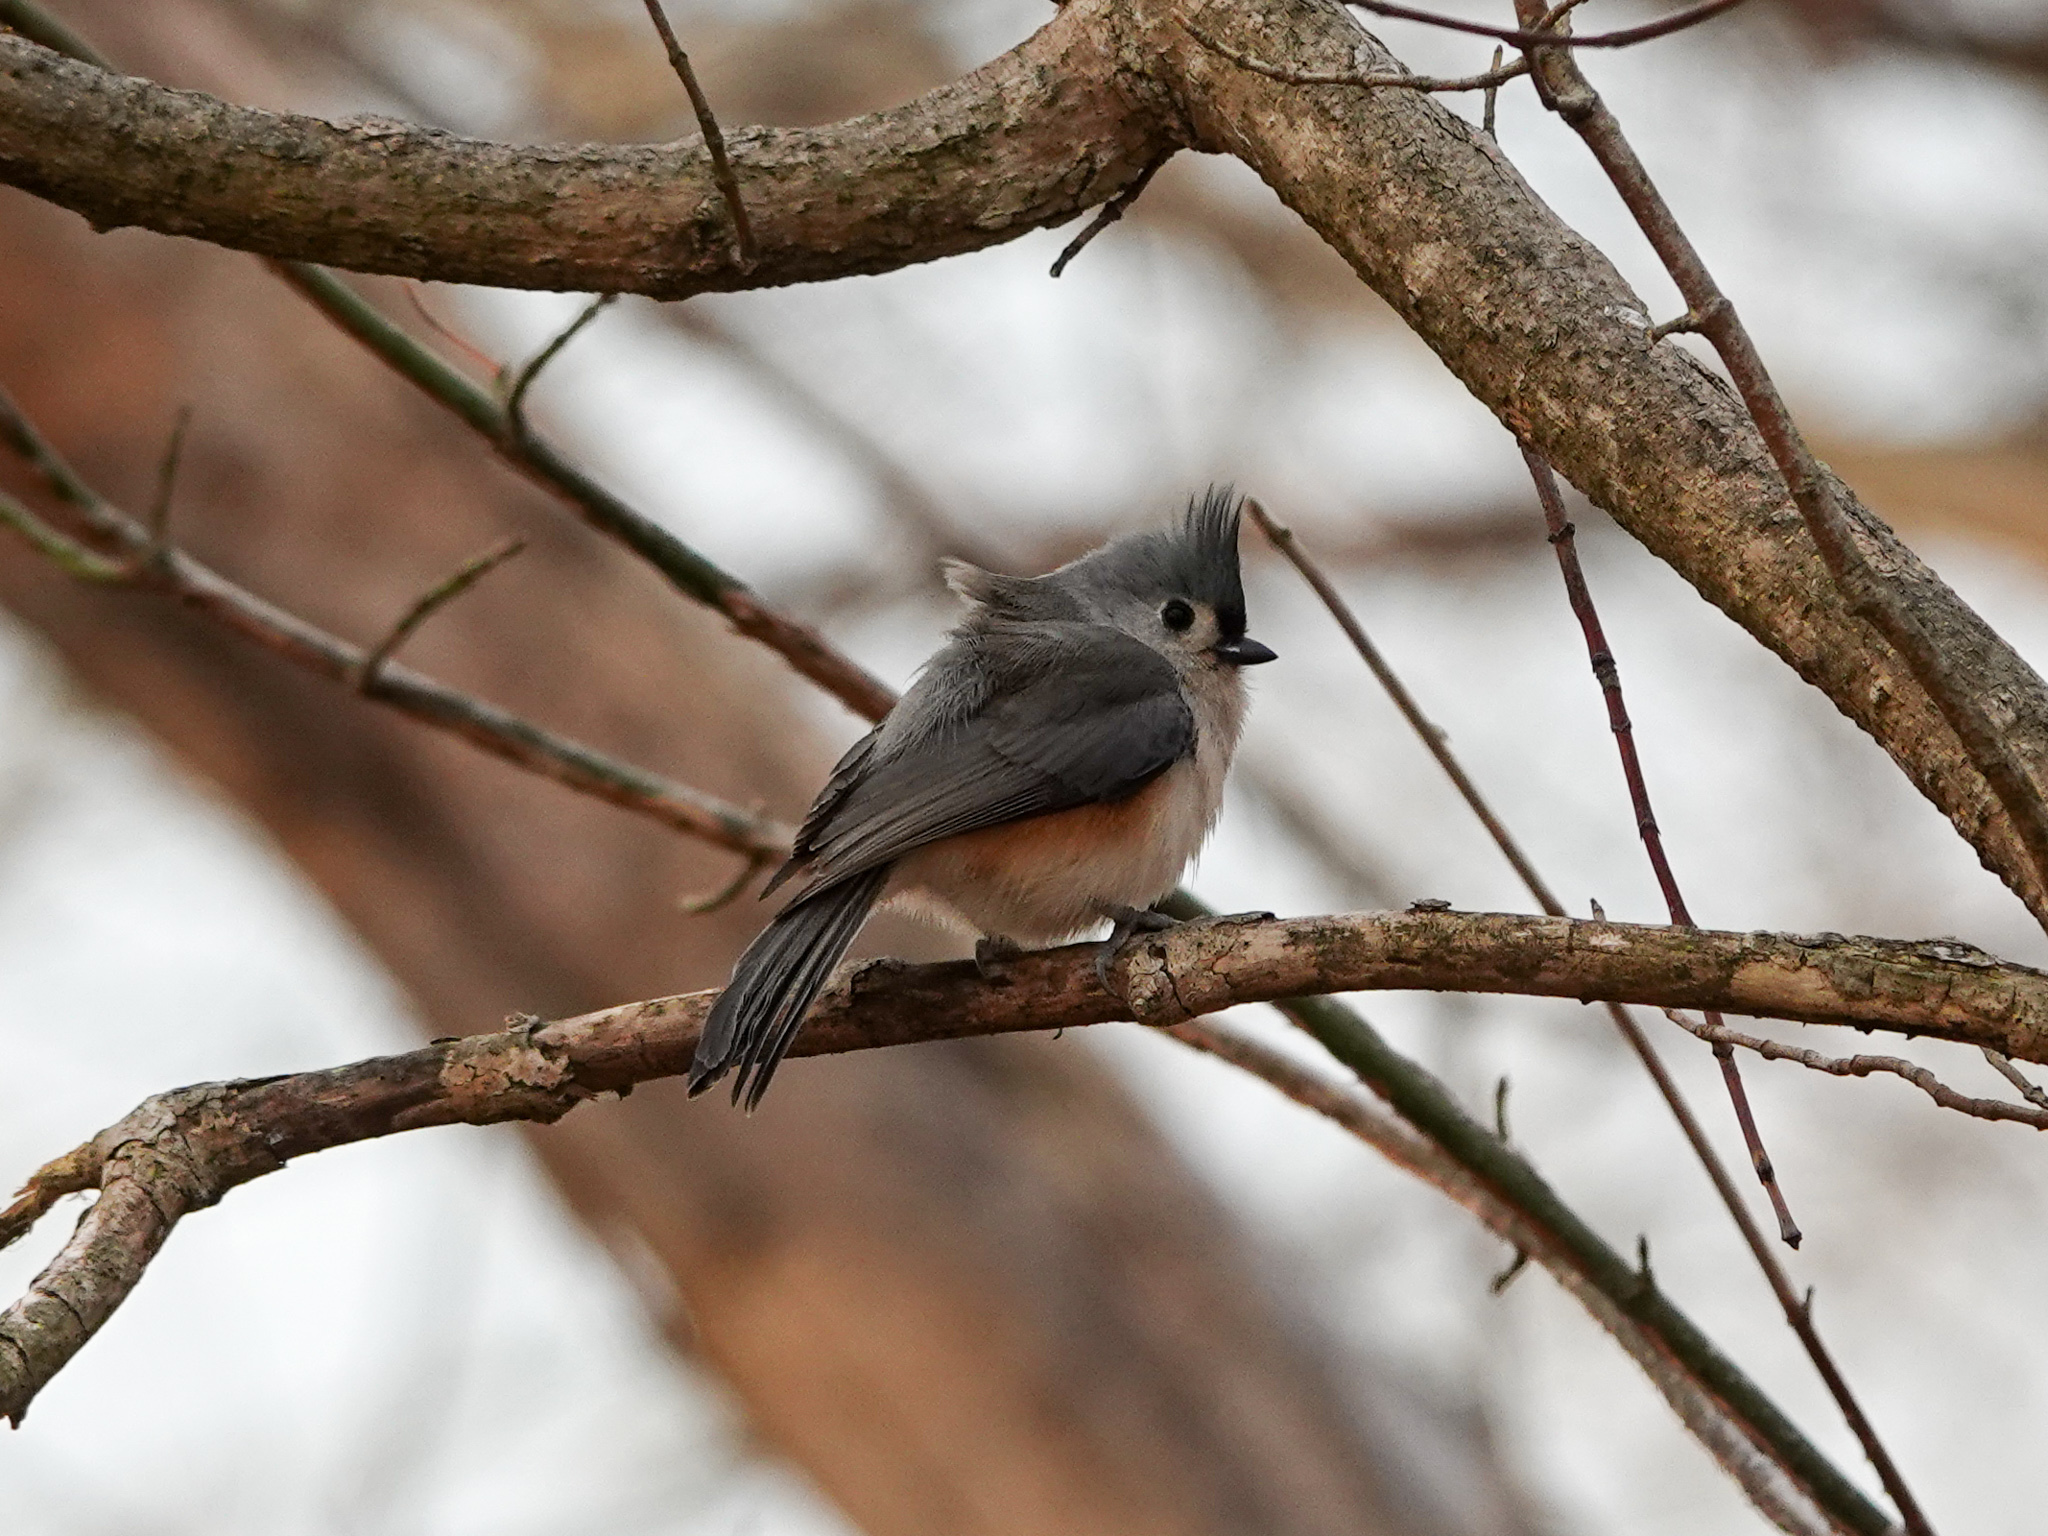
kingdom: Animalia
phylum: Chordata
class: Aves
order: Passeriformes
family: Paridae
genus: Baeolophus
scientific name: Baeolophus bicolor
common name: Tufted titmouse
